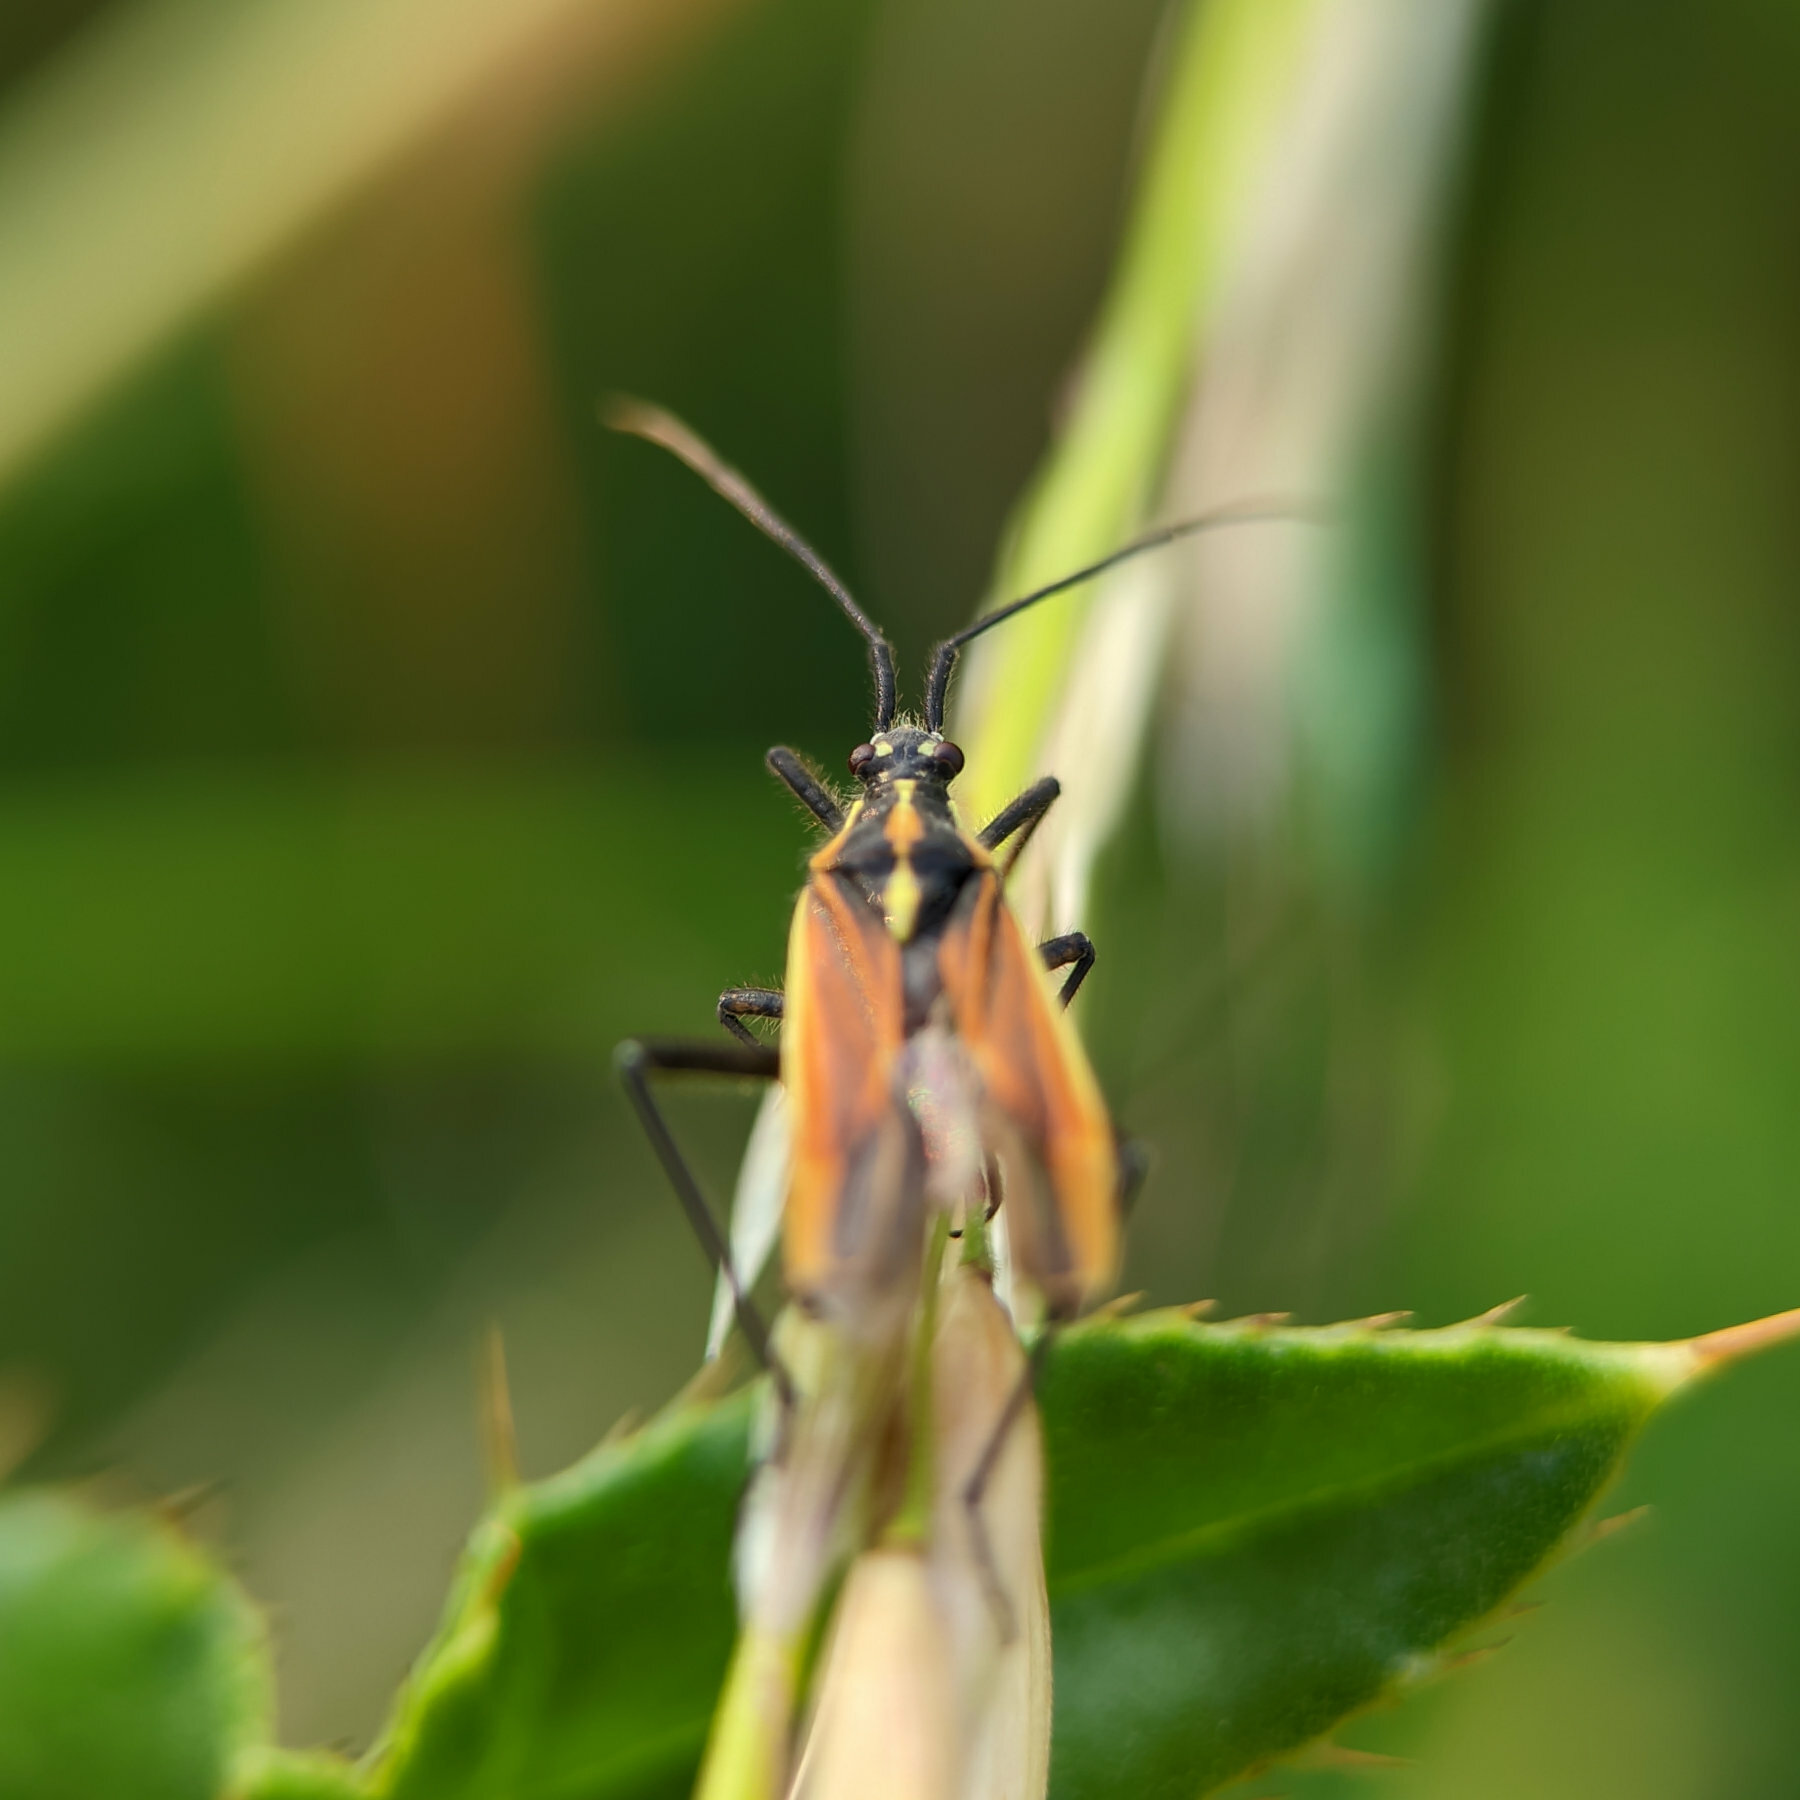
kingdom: Animalia
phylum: Arthropoda
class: Insecta
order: Hemiptera
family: Miridae
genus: Leptopterna
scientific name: Leptopterna dolabrata
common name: Meadow plant bug
